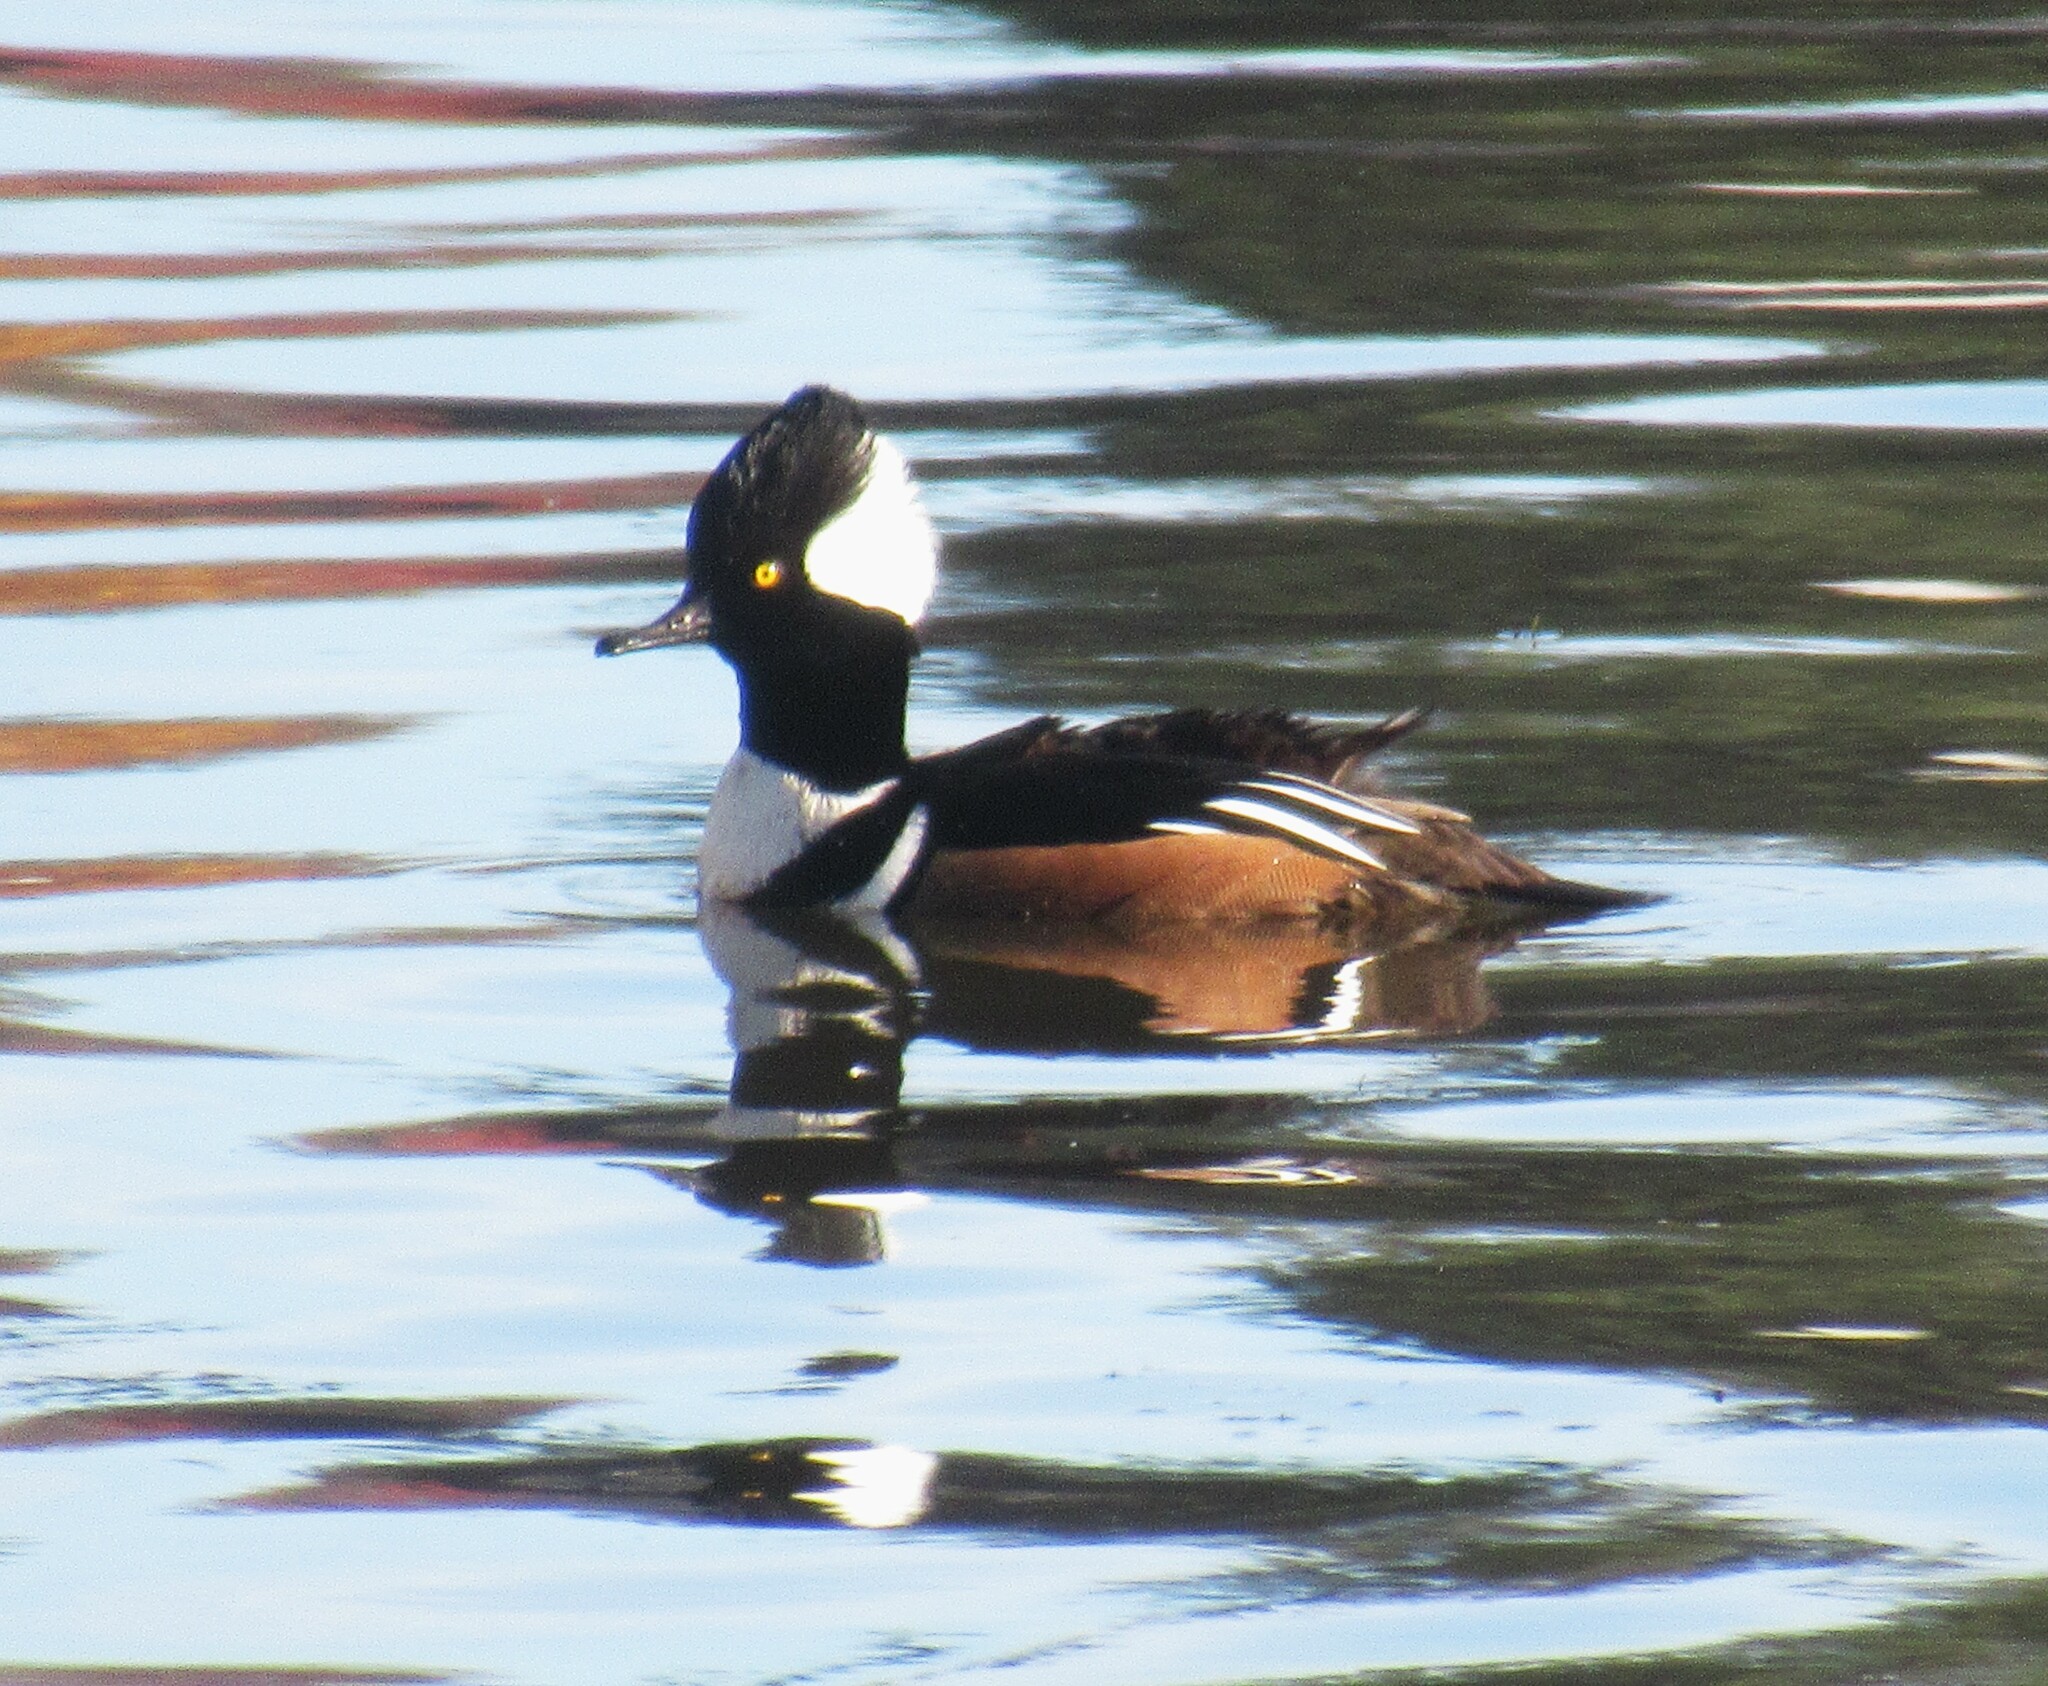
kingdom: Animalia
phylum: Chordata
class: Aves
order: Anseriformes
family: Anatidae
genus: Lophodytes
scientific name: Lophodytes cucullatus
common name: Hooded merganser
